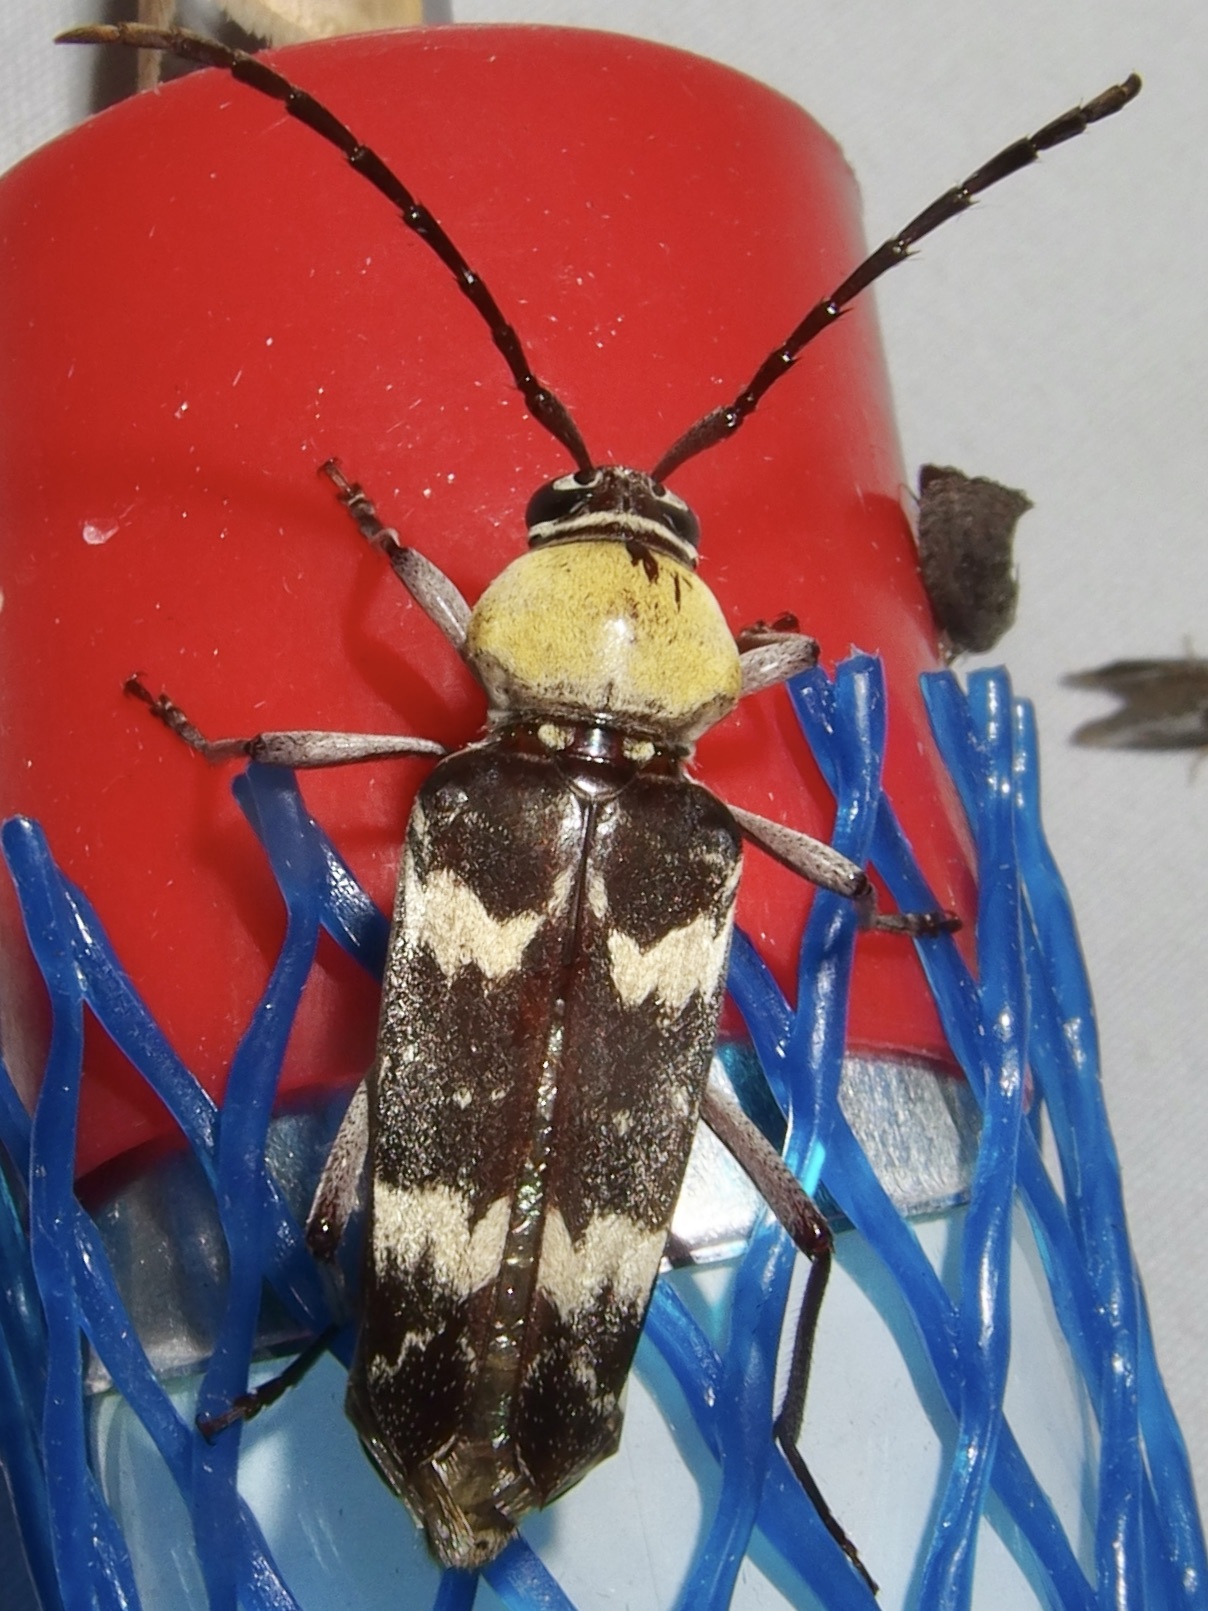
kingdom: Animalia
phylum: Arthropoda
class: Insecta
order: Coleoptera
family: Cerambycidae
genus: Megacyllene
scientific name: Megacyllene antennata
